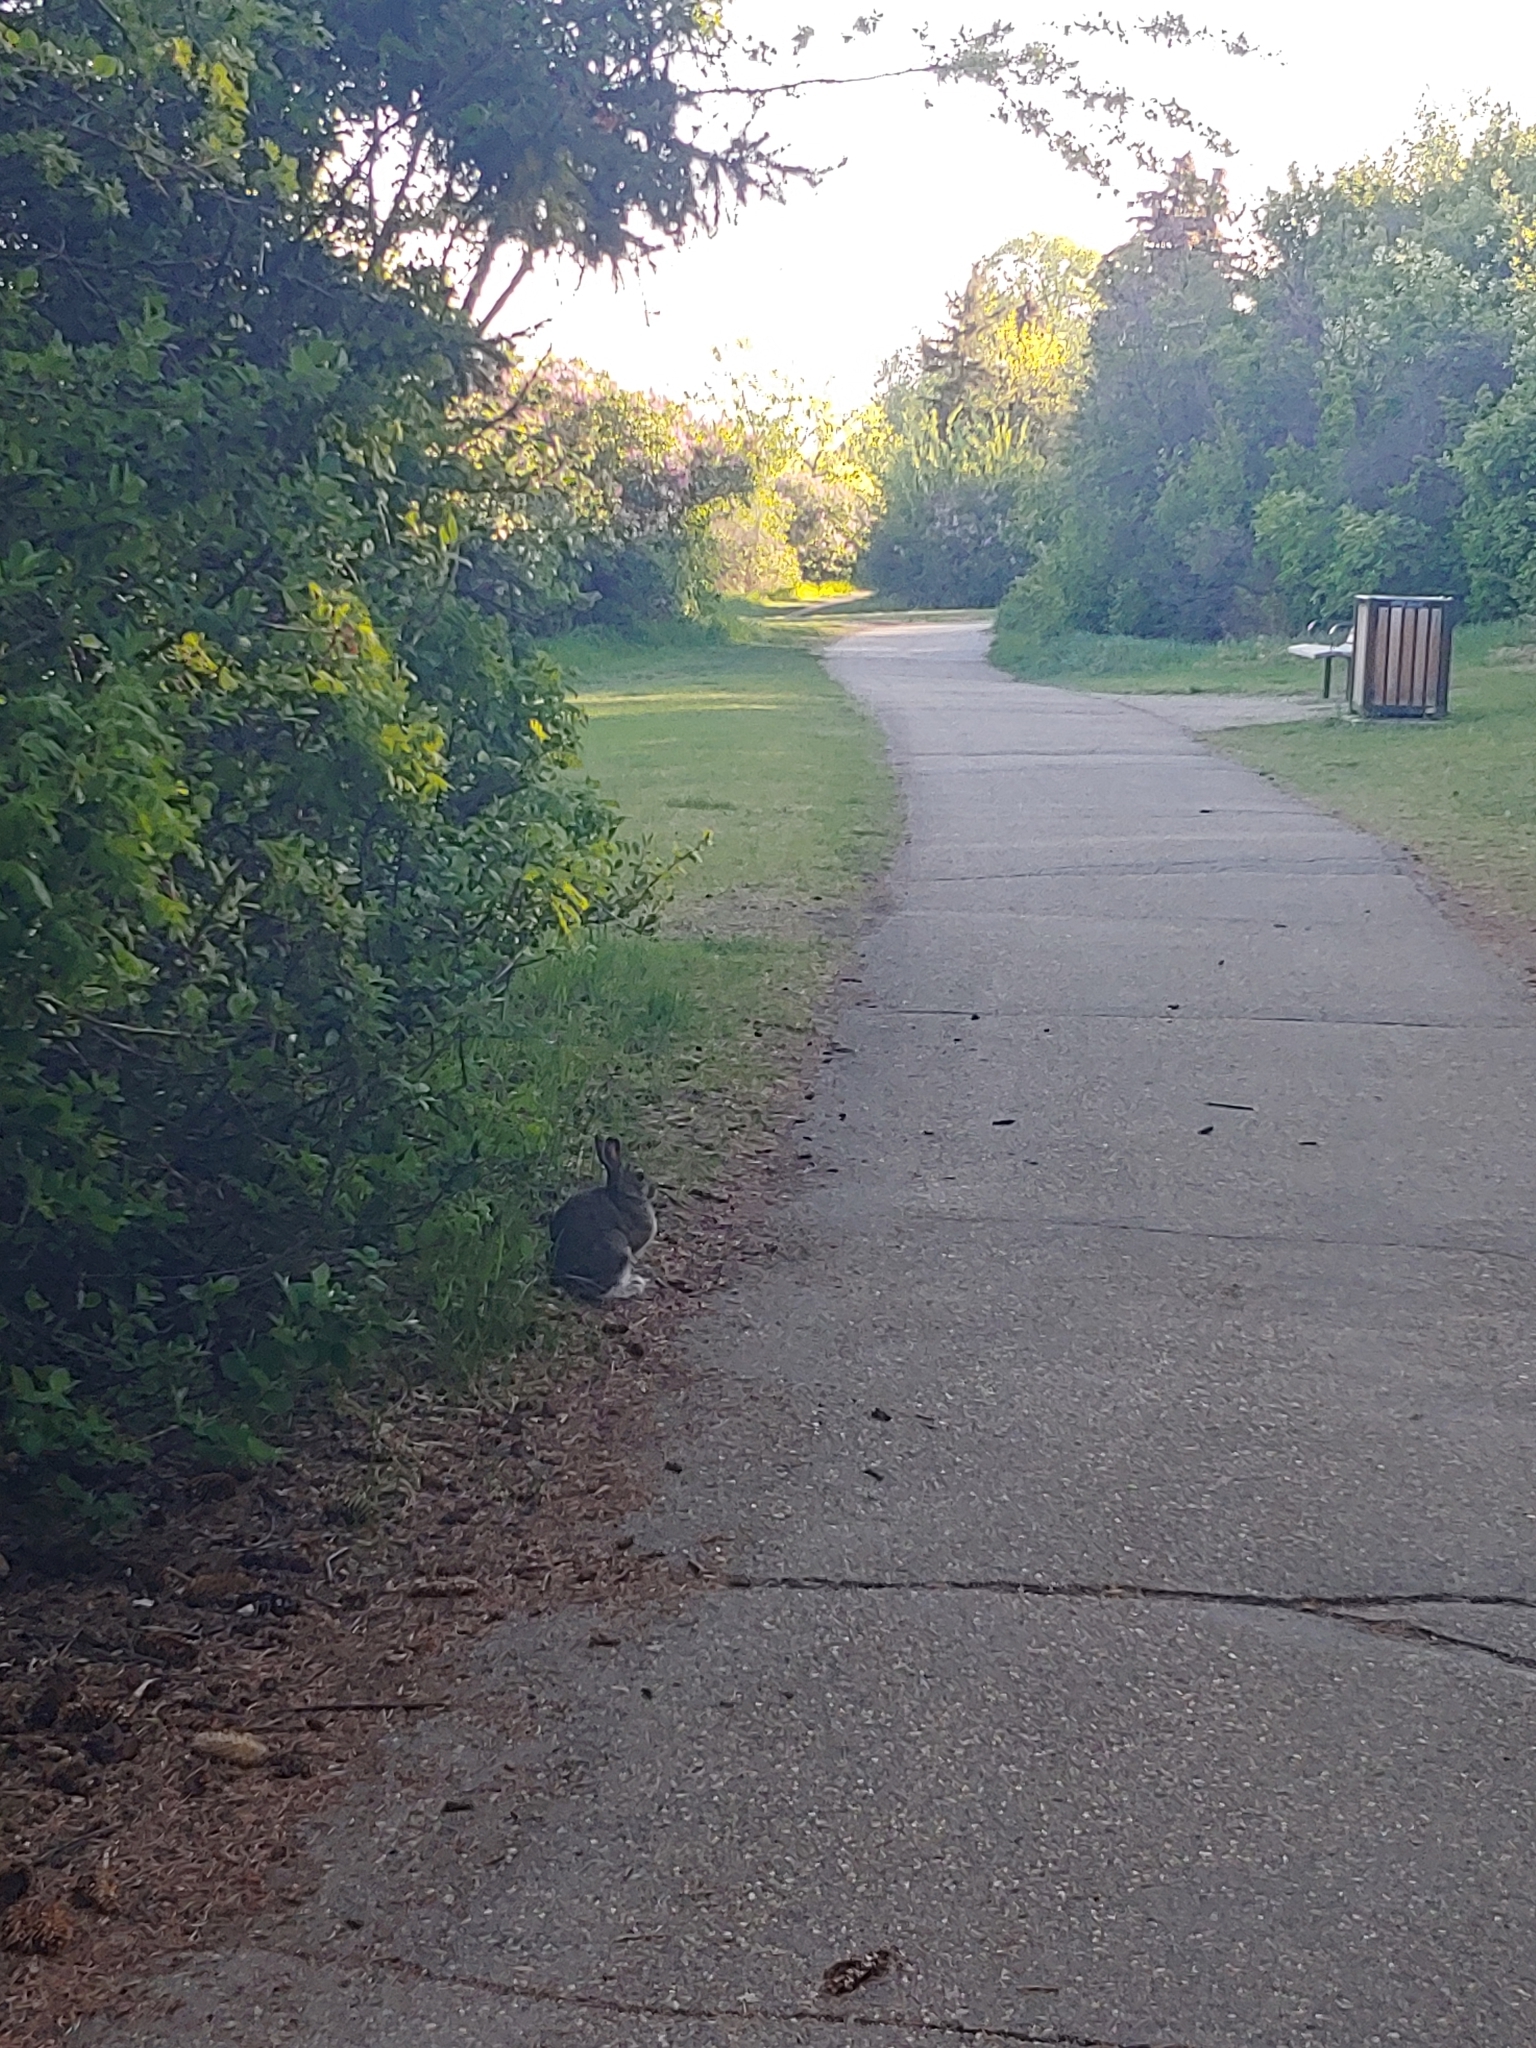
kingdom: Animalia
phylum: Chordata
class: Mammalia
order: Lagomorpha
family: Leporidae
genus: Lepus
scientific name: Lepus americanus
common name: Snowshoe hare
